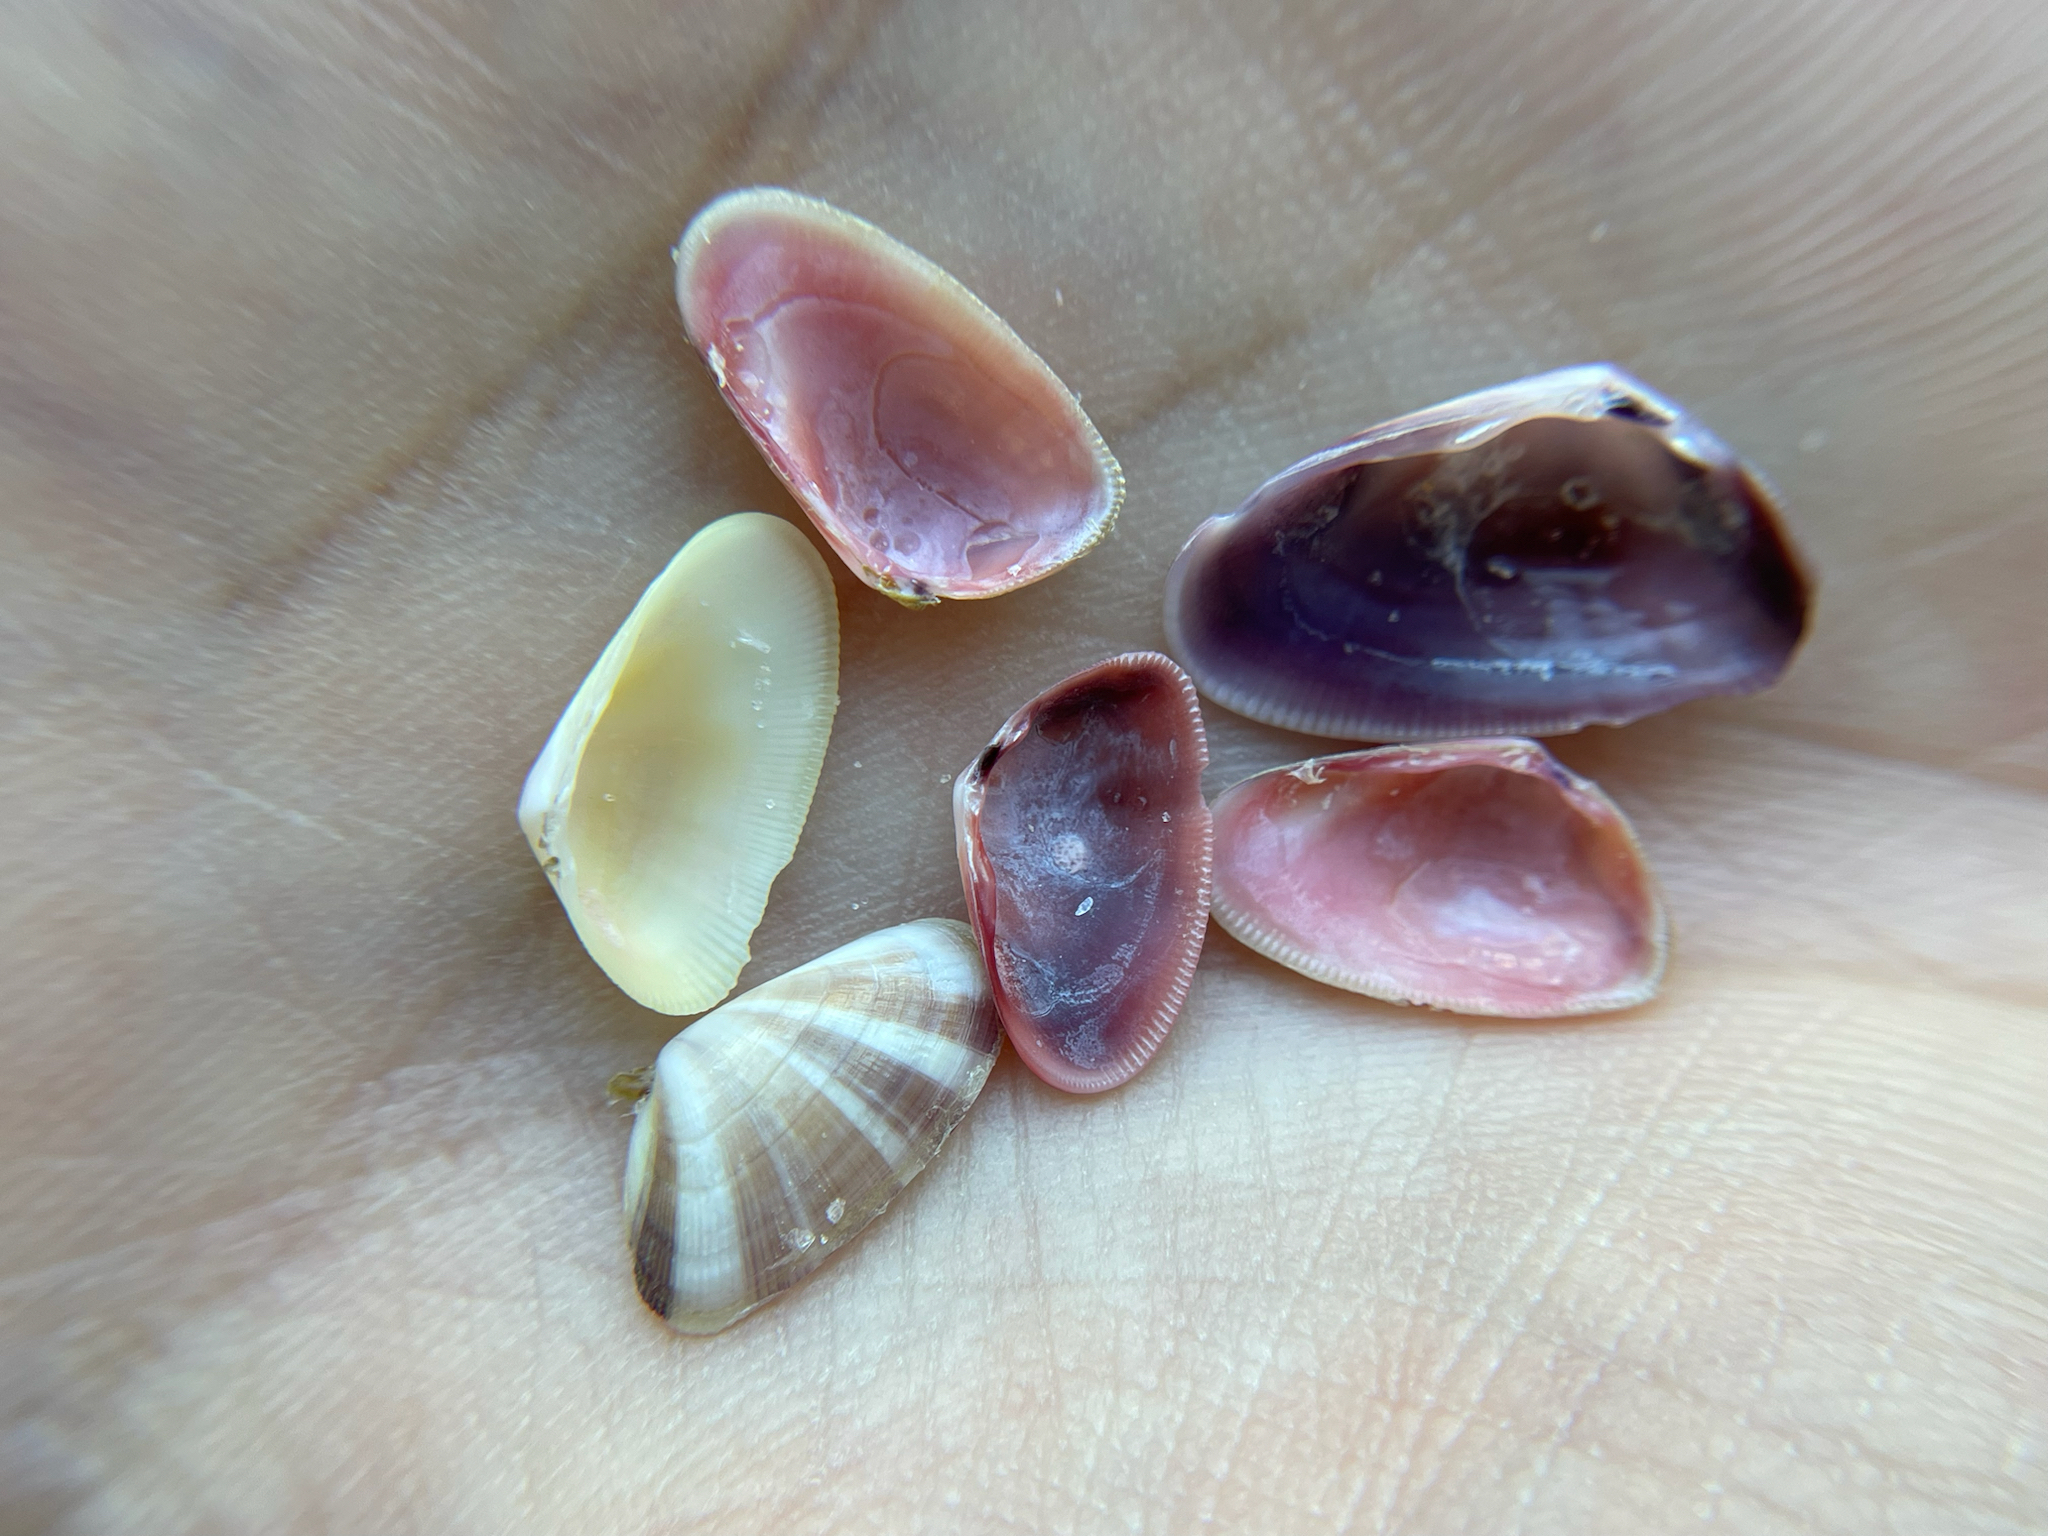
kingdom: Animalia
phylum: Mollusca
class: Bivalvia
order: Cardiida
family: Donacidae
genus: Donax
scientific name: Donax variabilis
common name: Butterfly shell
